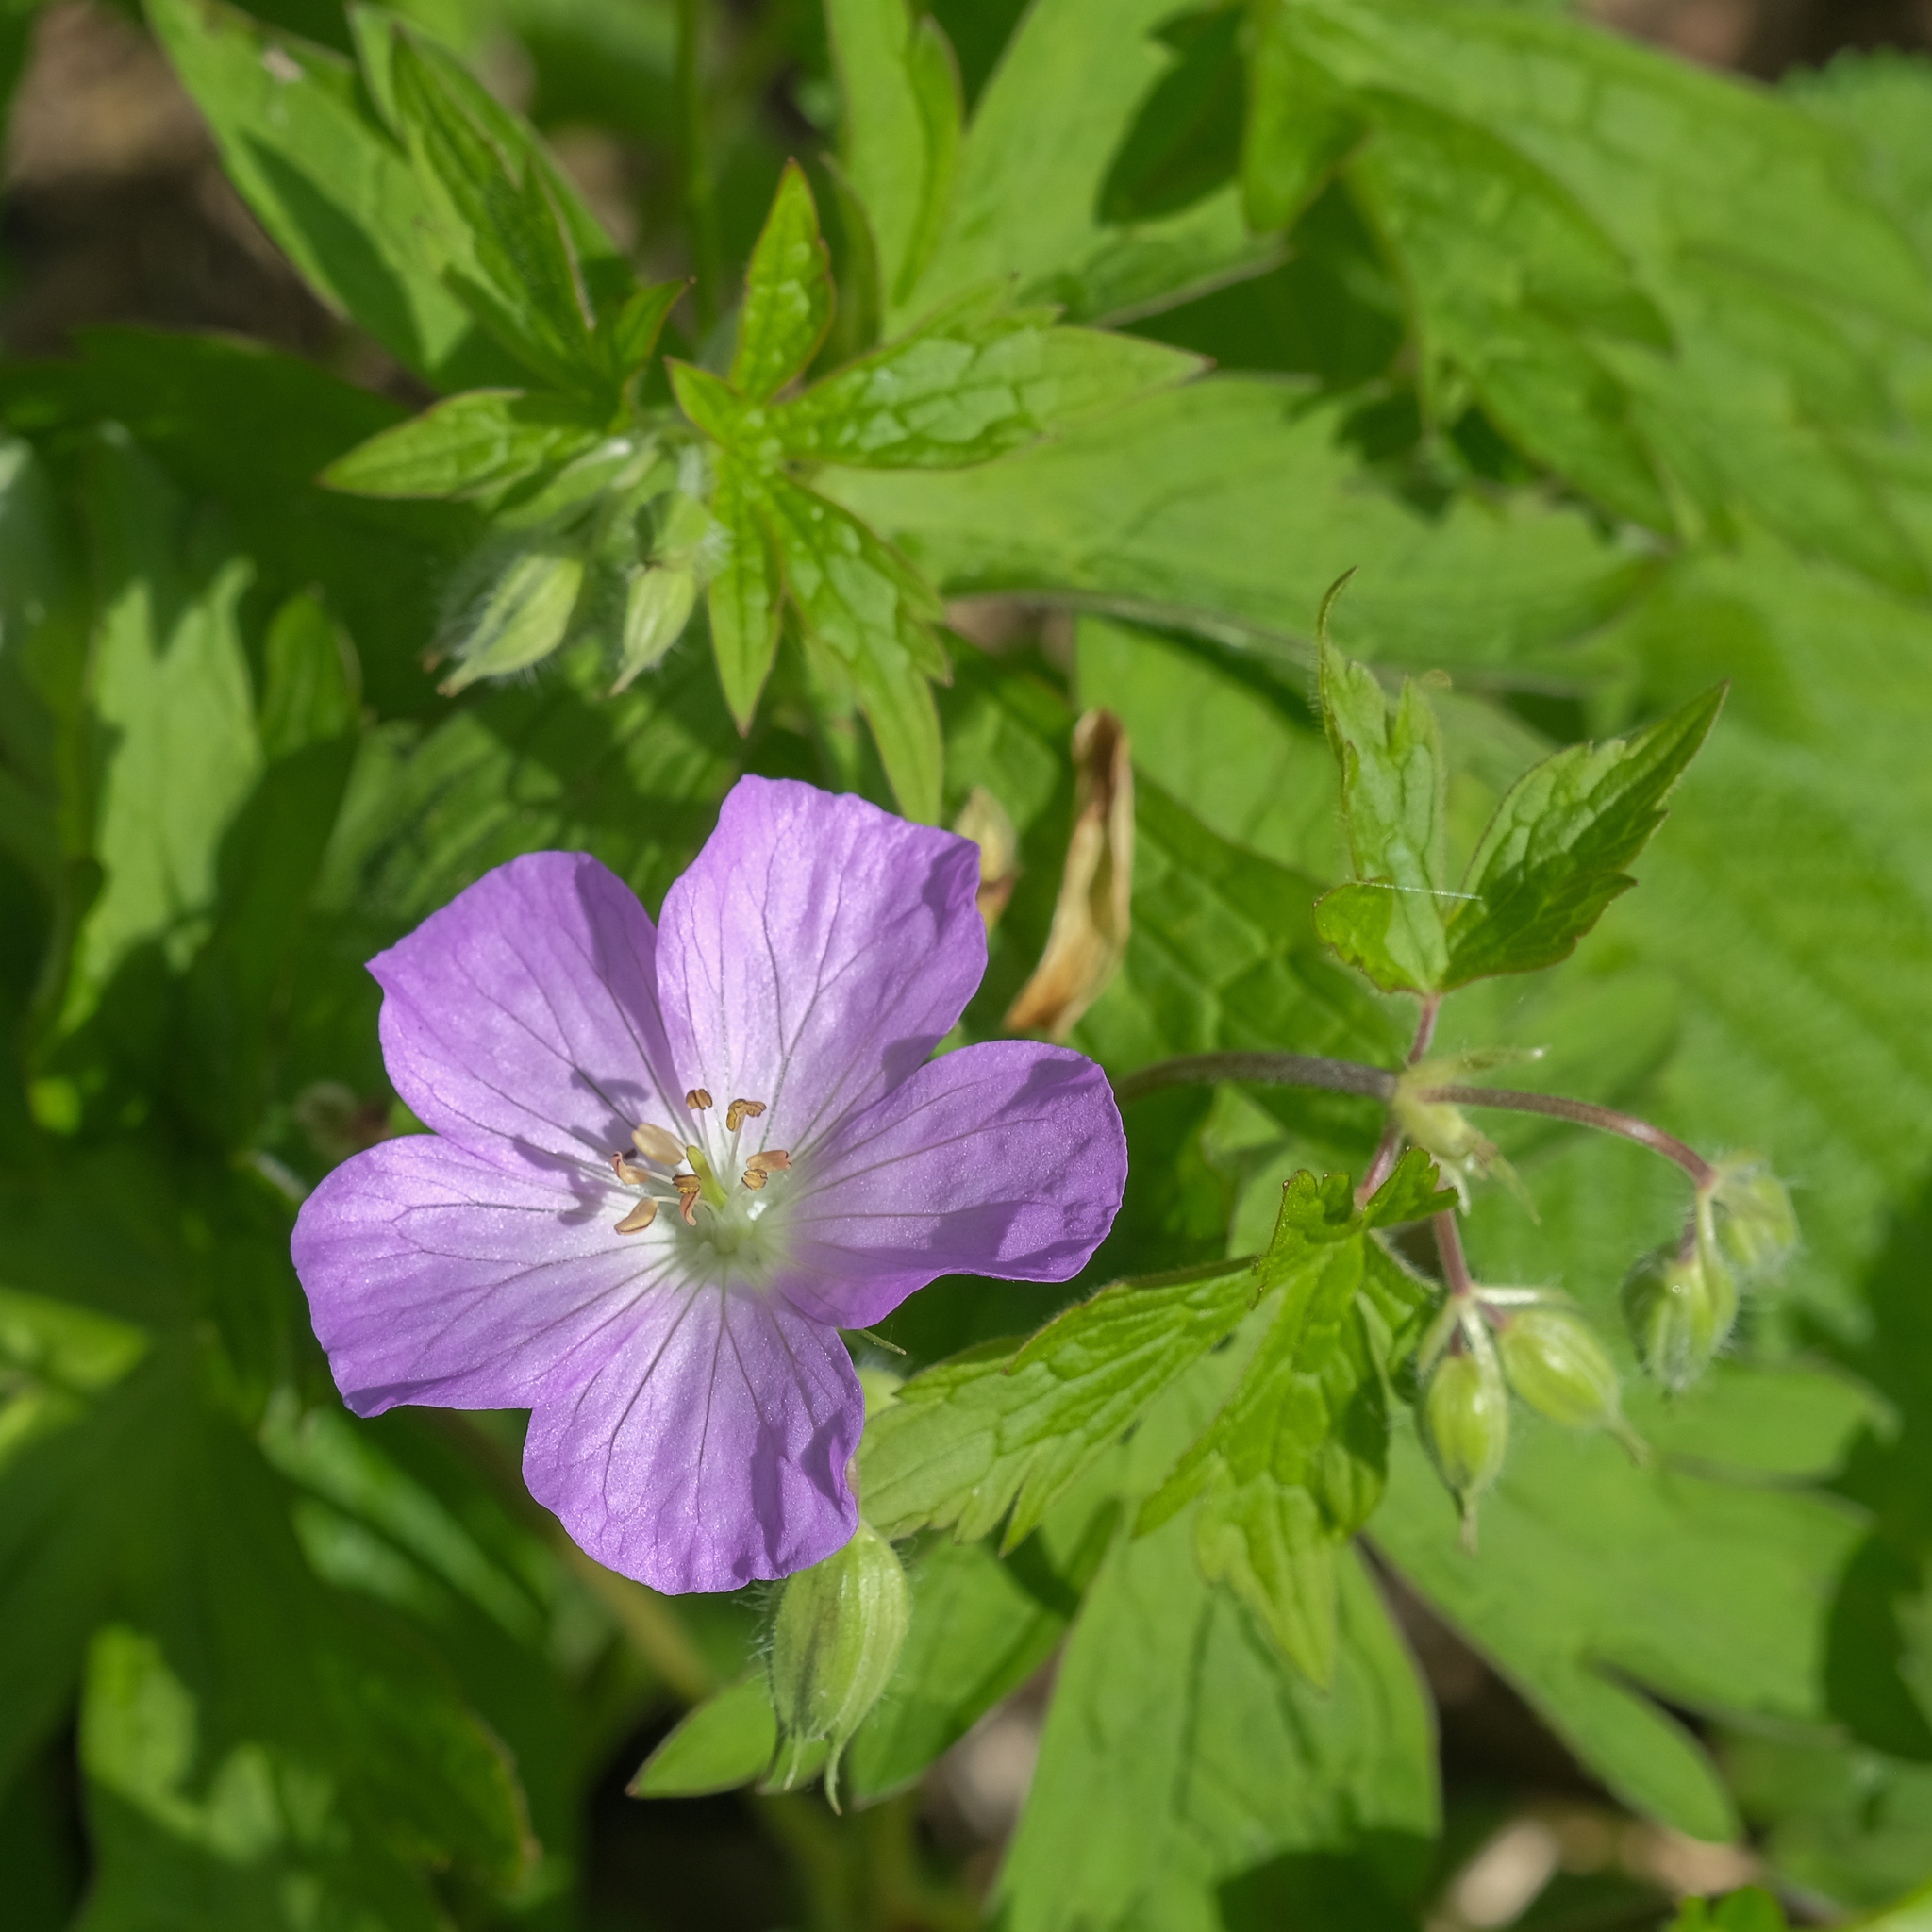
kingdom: Plantae
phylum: Tracheophyta
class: Magnoliopsida
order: Geraniales
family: Geraniaceae
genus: Geranium
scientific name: Geranium maculatum
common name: Spotted geranium
